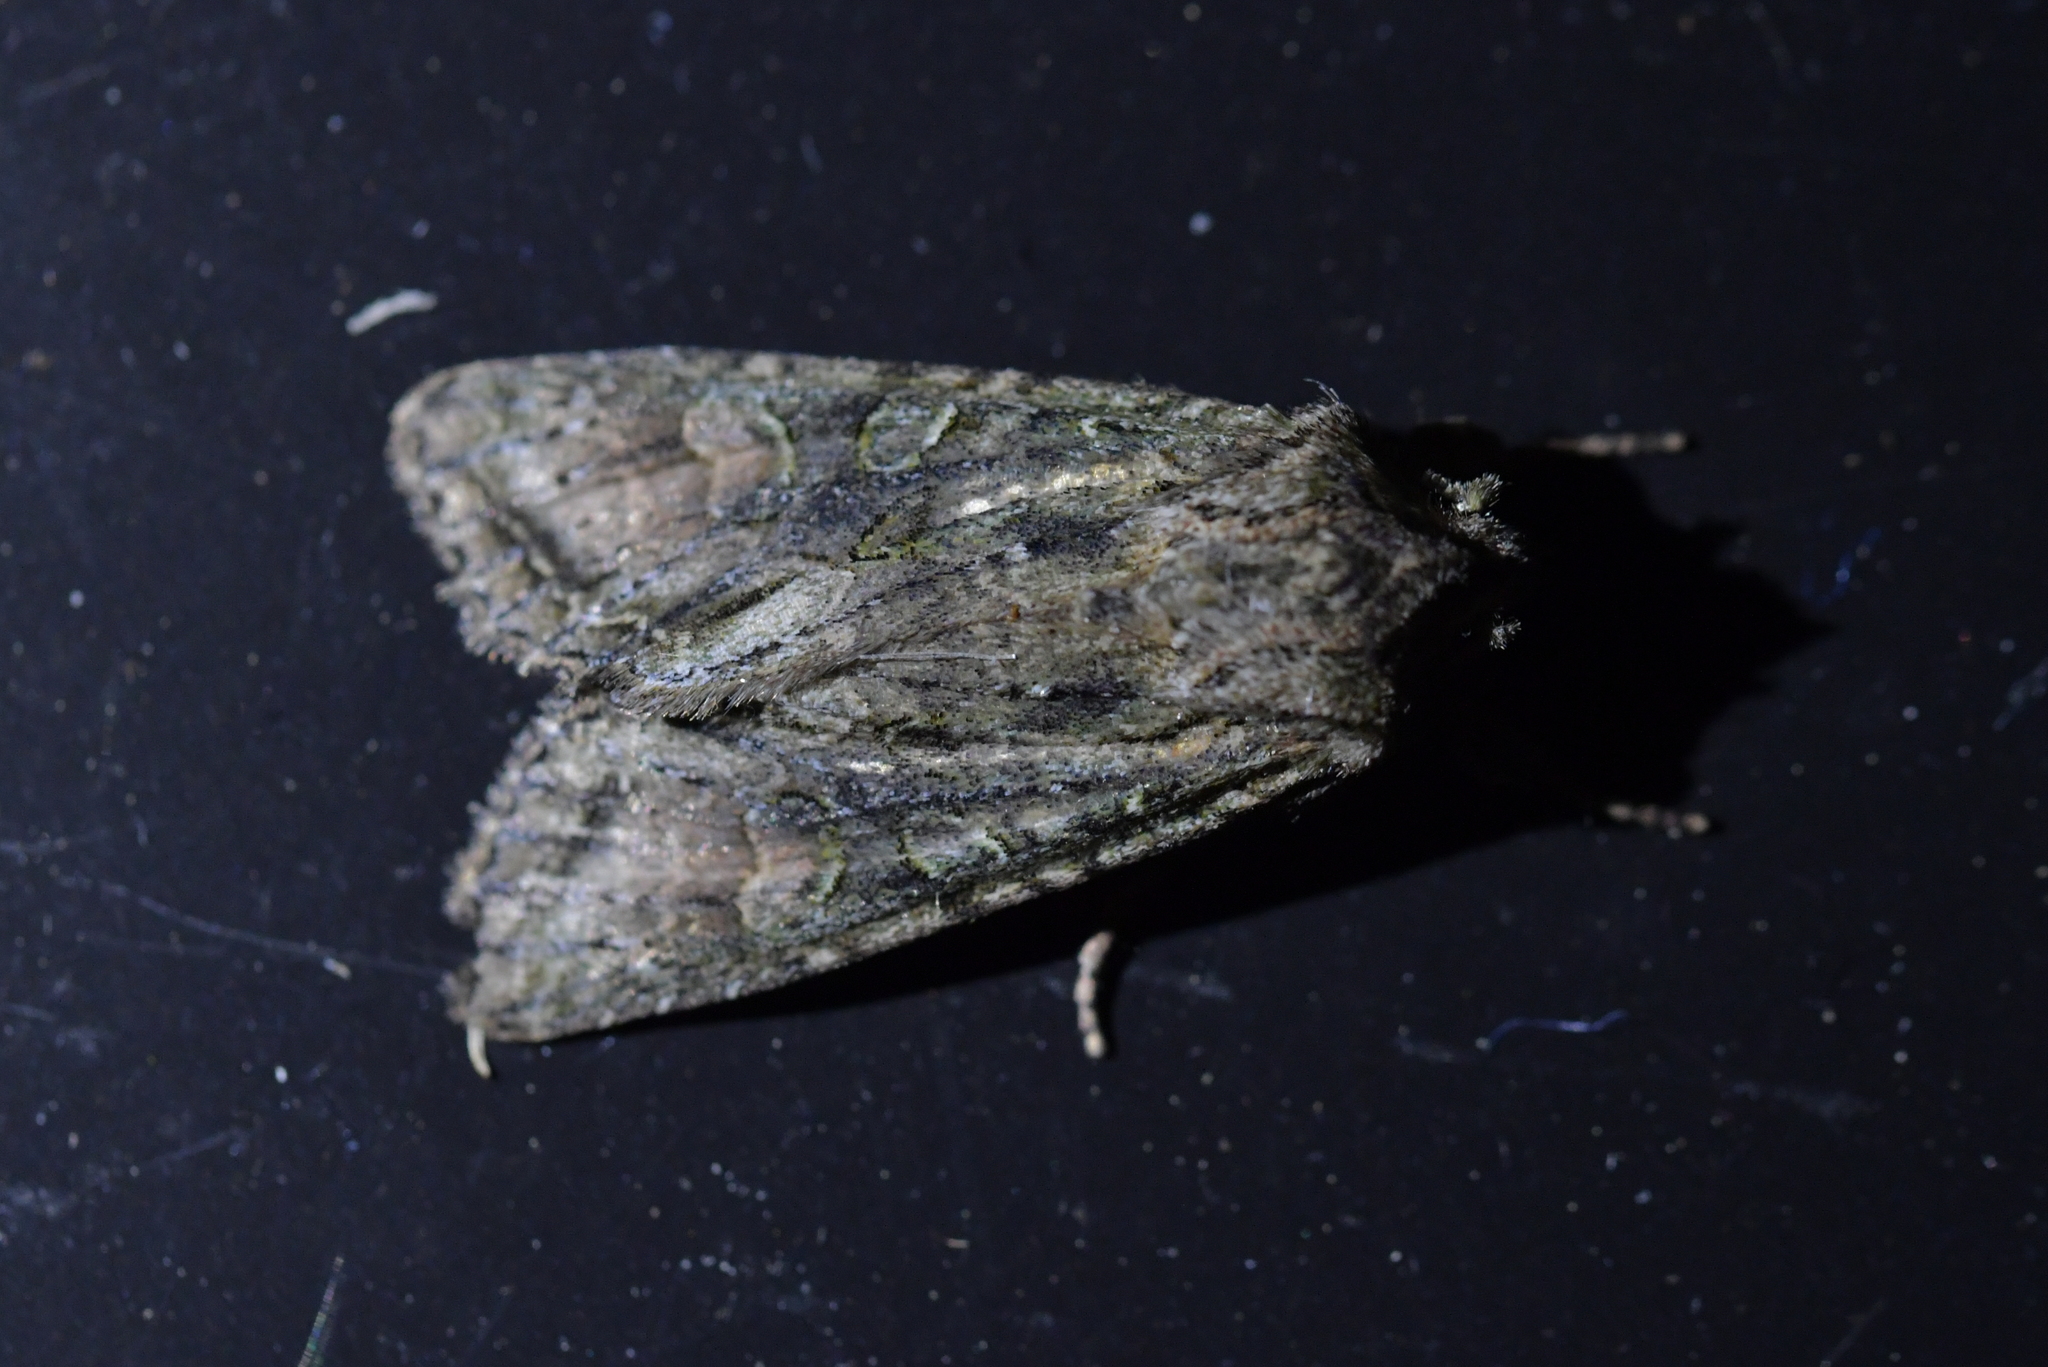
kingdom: Animalia
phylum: Arthropoda
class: Insecta
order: Lepidoptera
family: Noctuidae
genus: Ichneutica
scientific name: Ichneutica mutans
